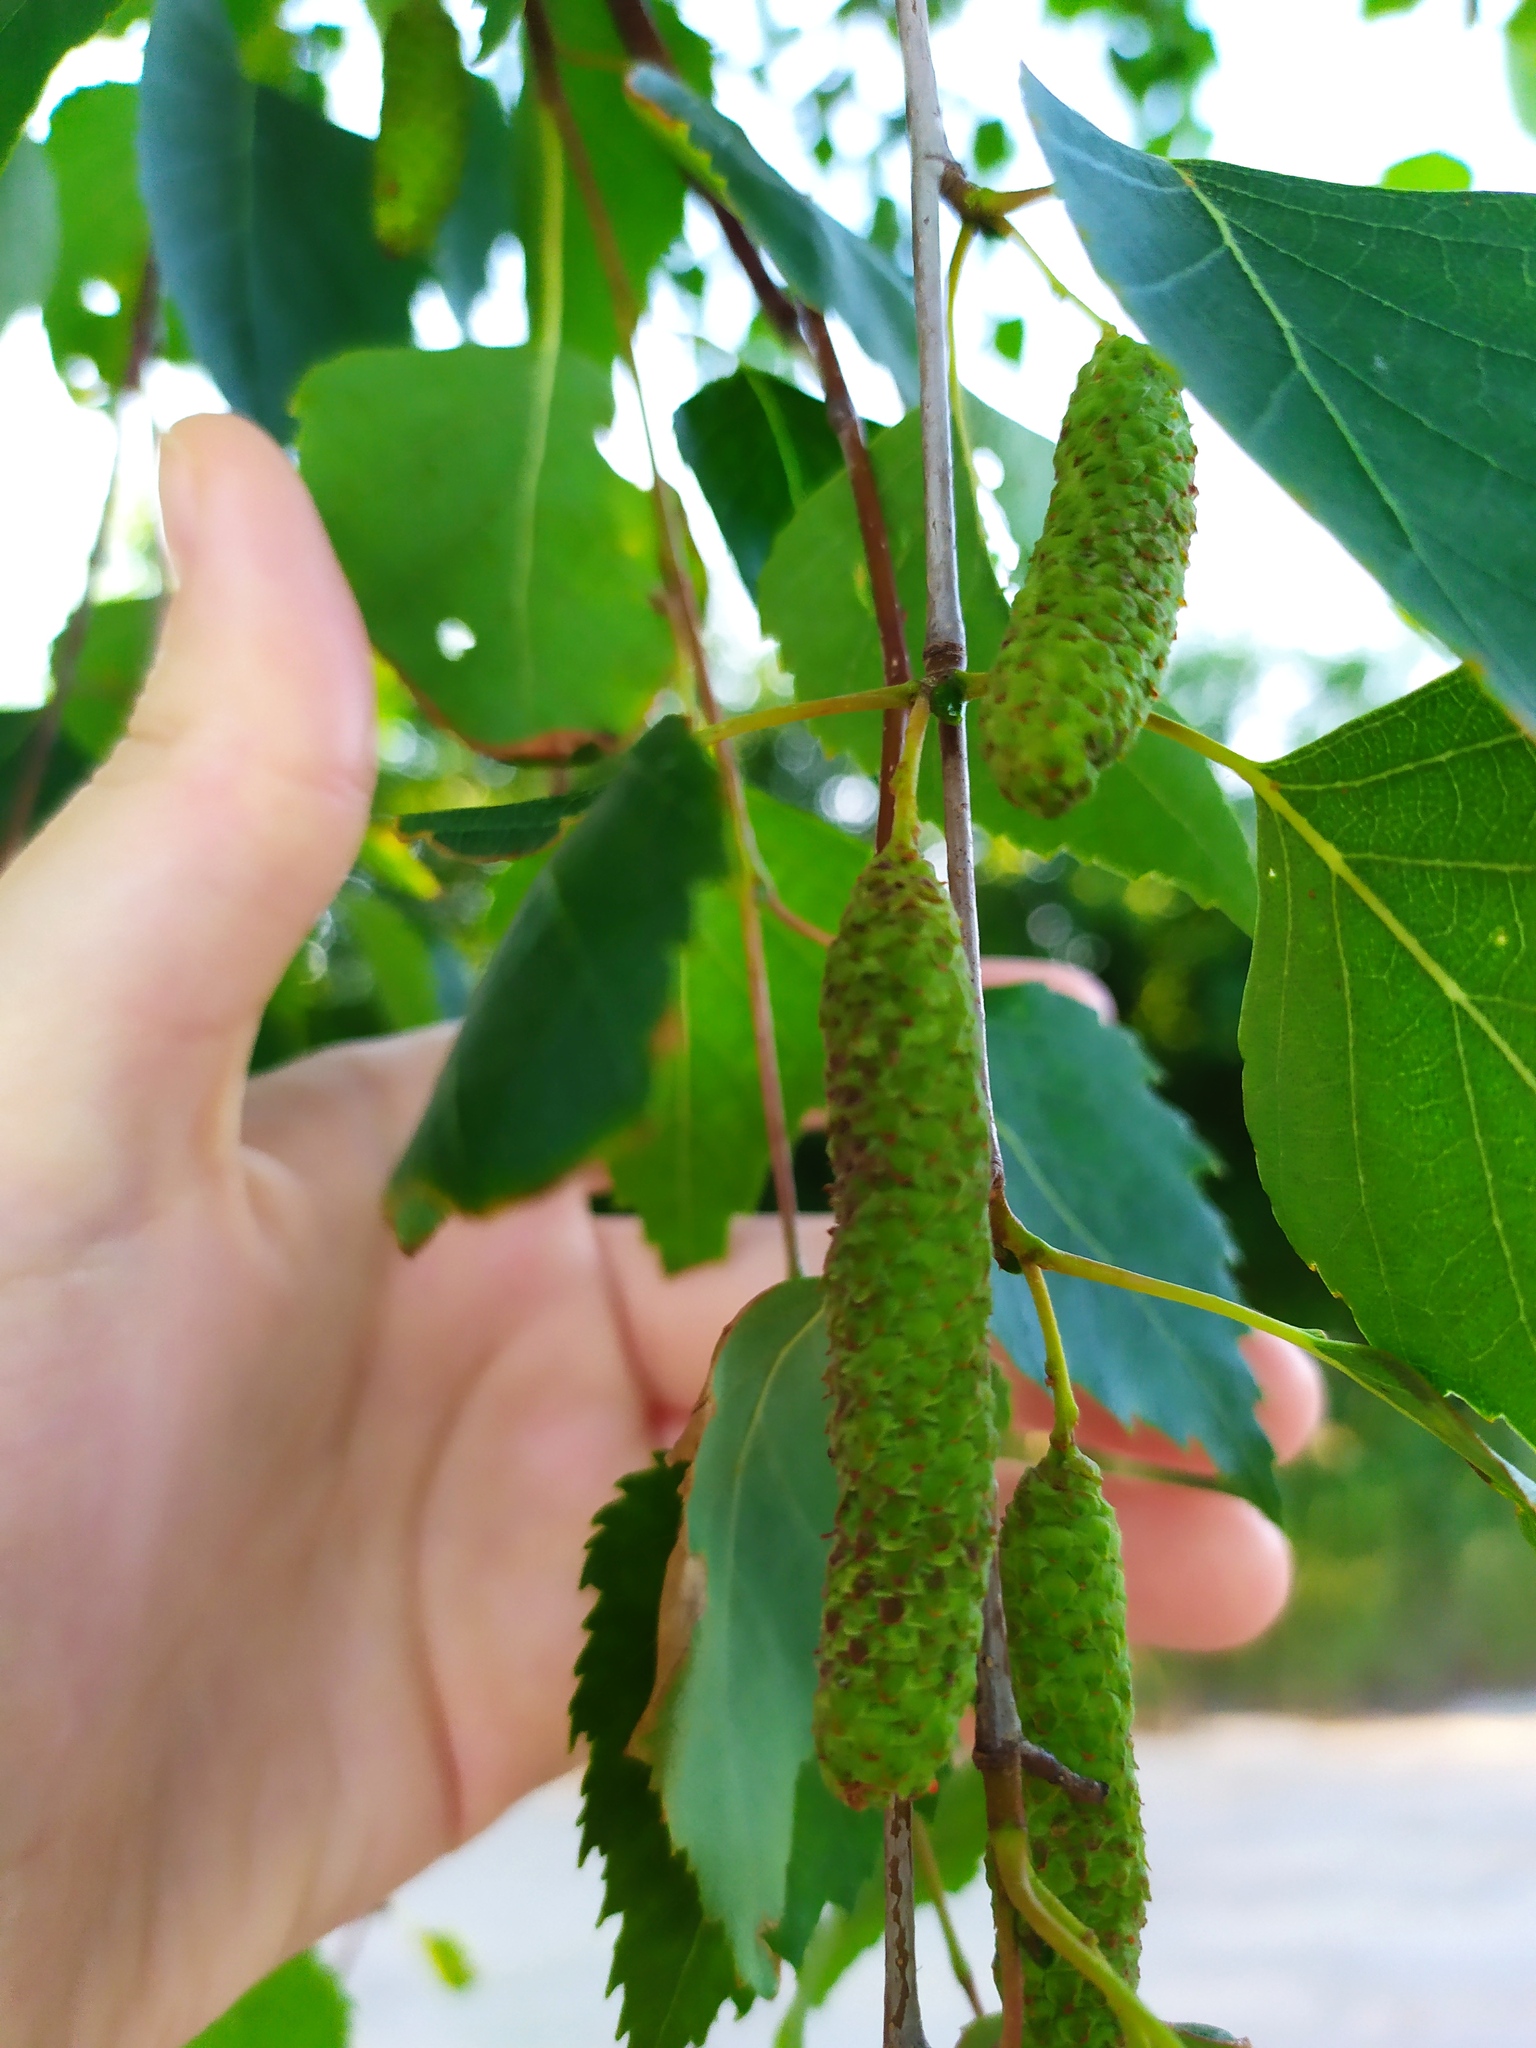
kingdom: Plantae
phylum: Tracheophyta
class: Magnoliopsida
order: Fagales
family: Betulaceae
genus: Betula
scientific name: Betula pendula
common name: Silver birch
